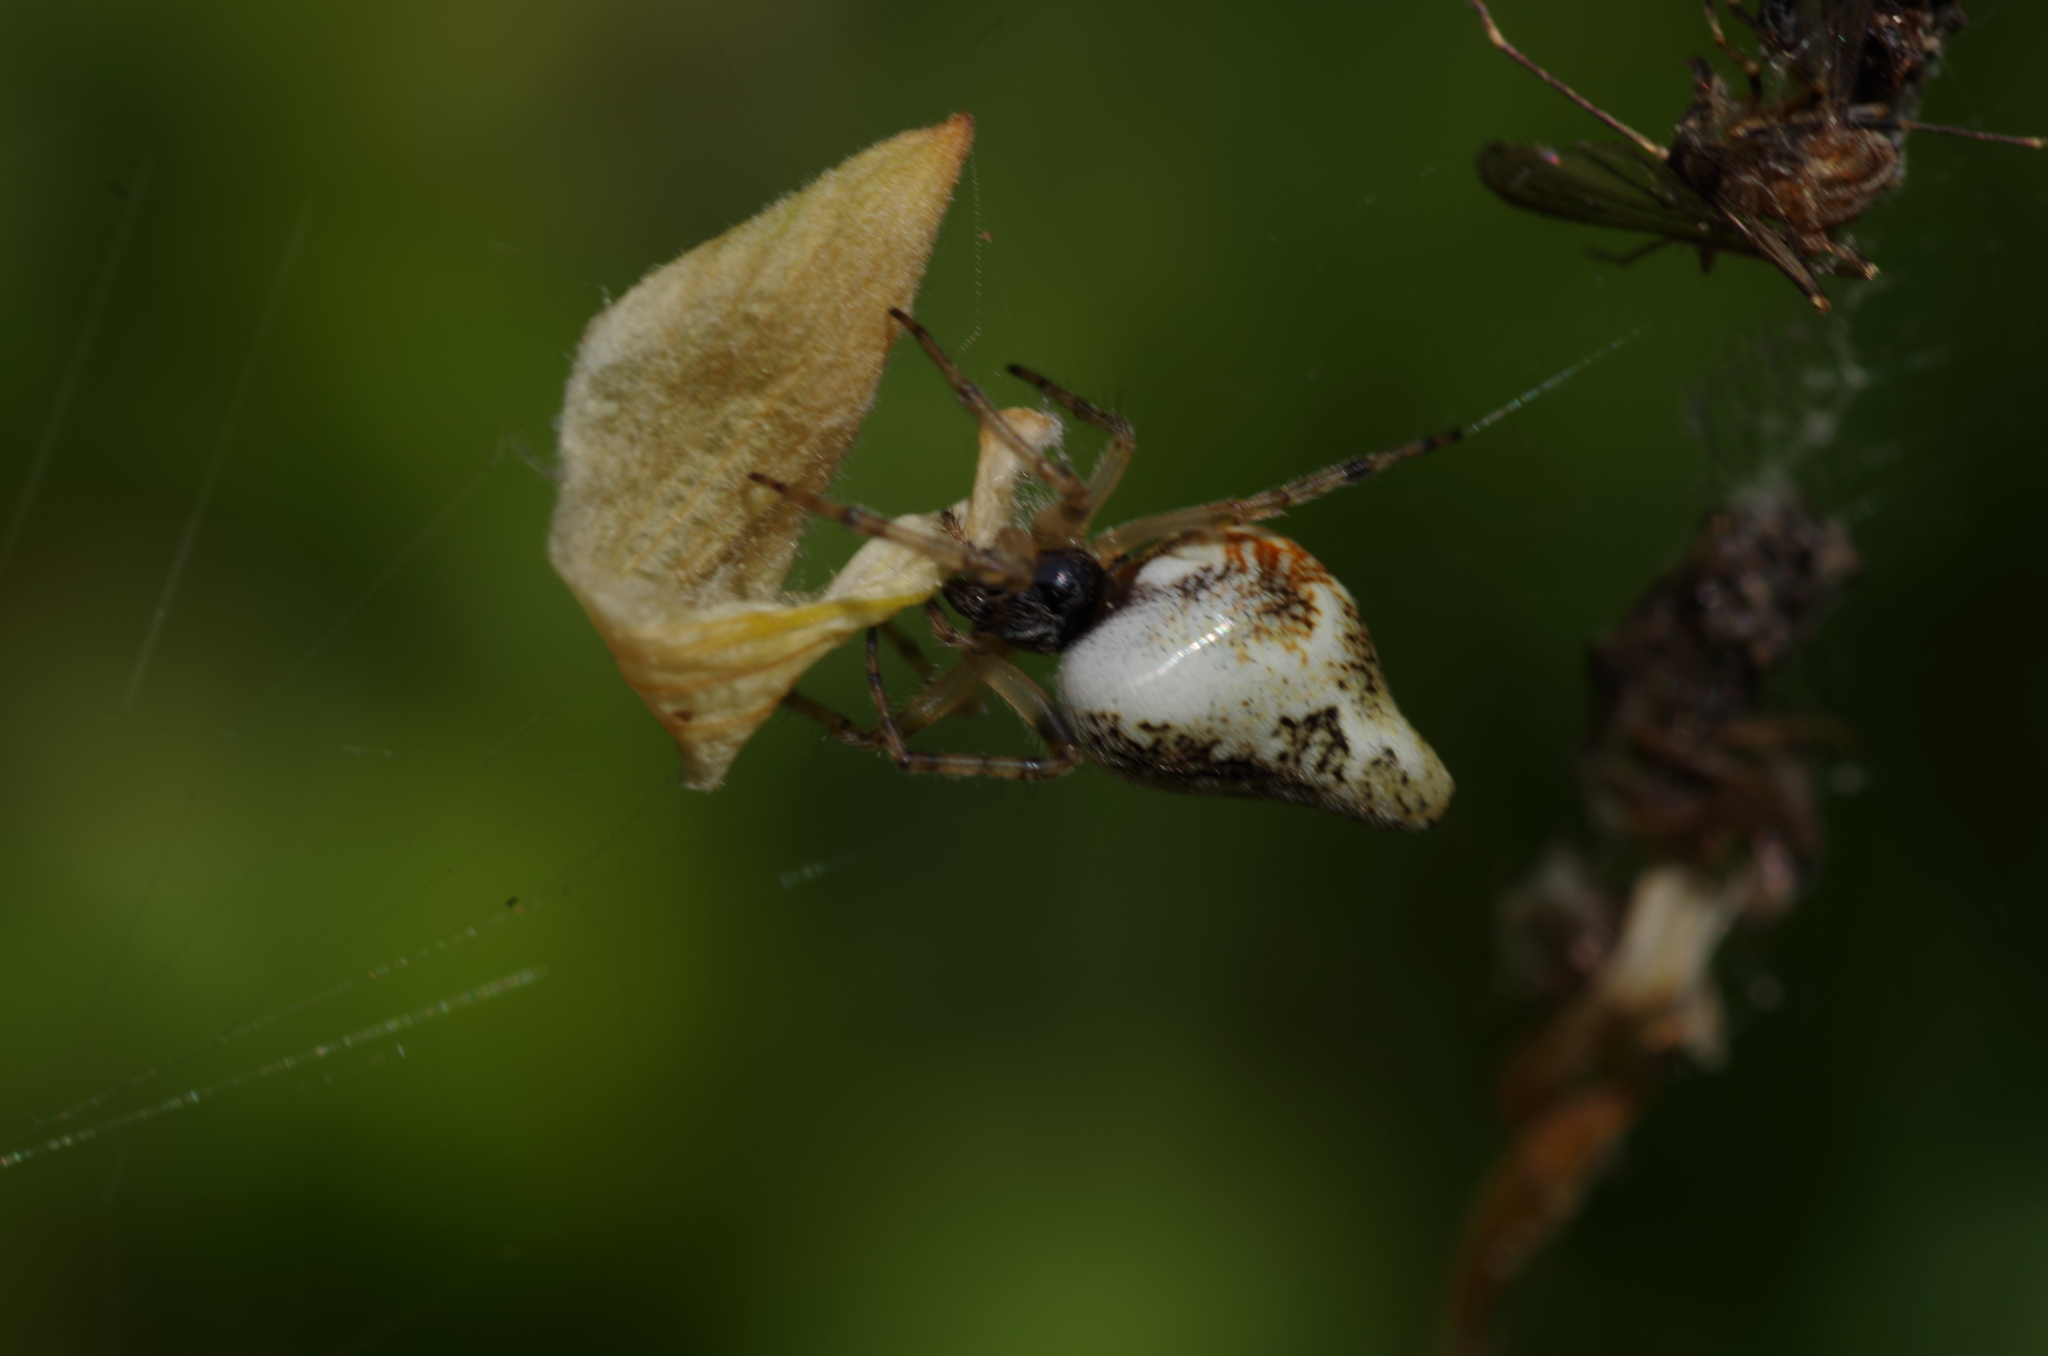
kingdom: Animalia
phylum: Arthropoda
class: Arachnida
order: Araneae
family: Araneidae
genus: Cyclosa
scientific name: Cyclosa conica
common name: Conical trashline orbweaver
